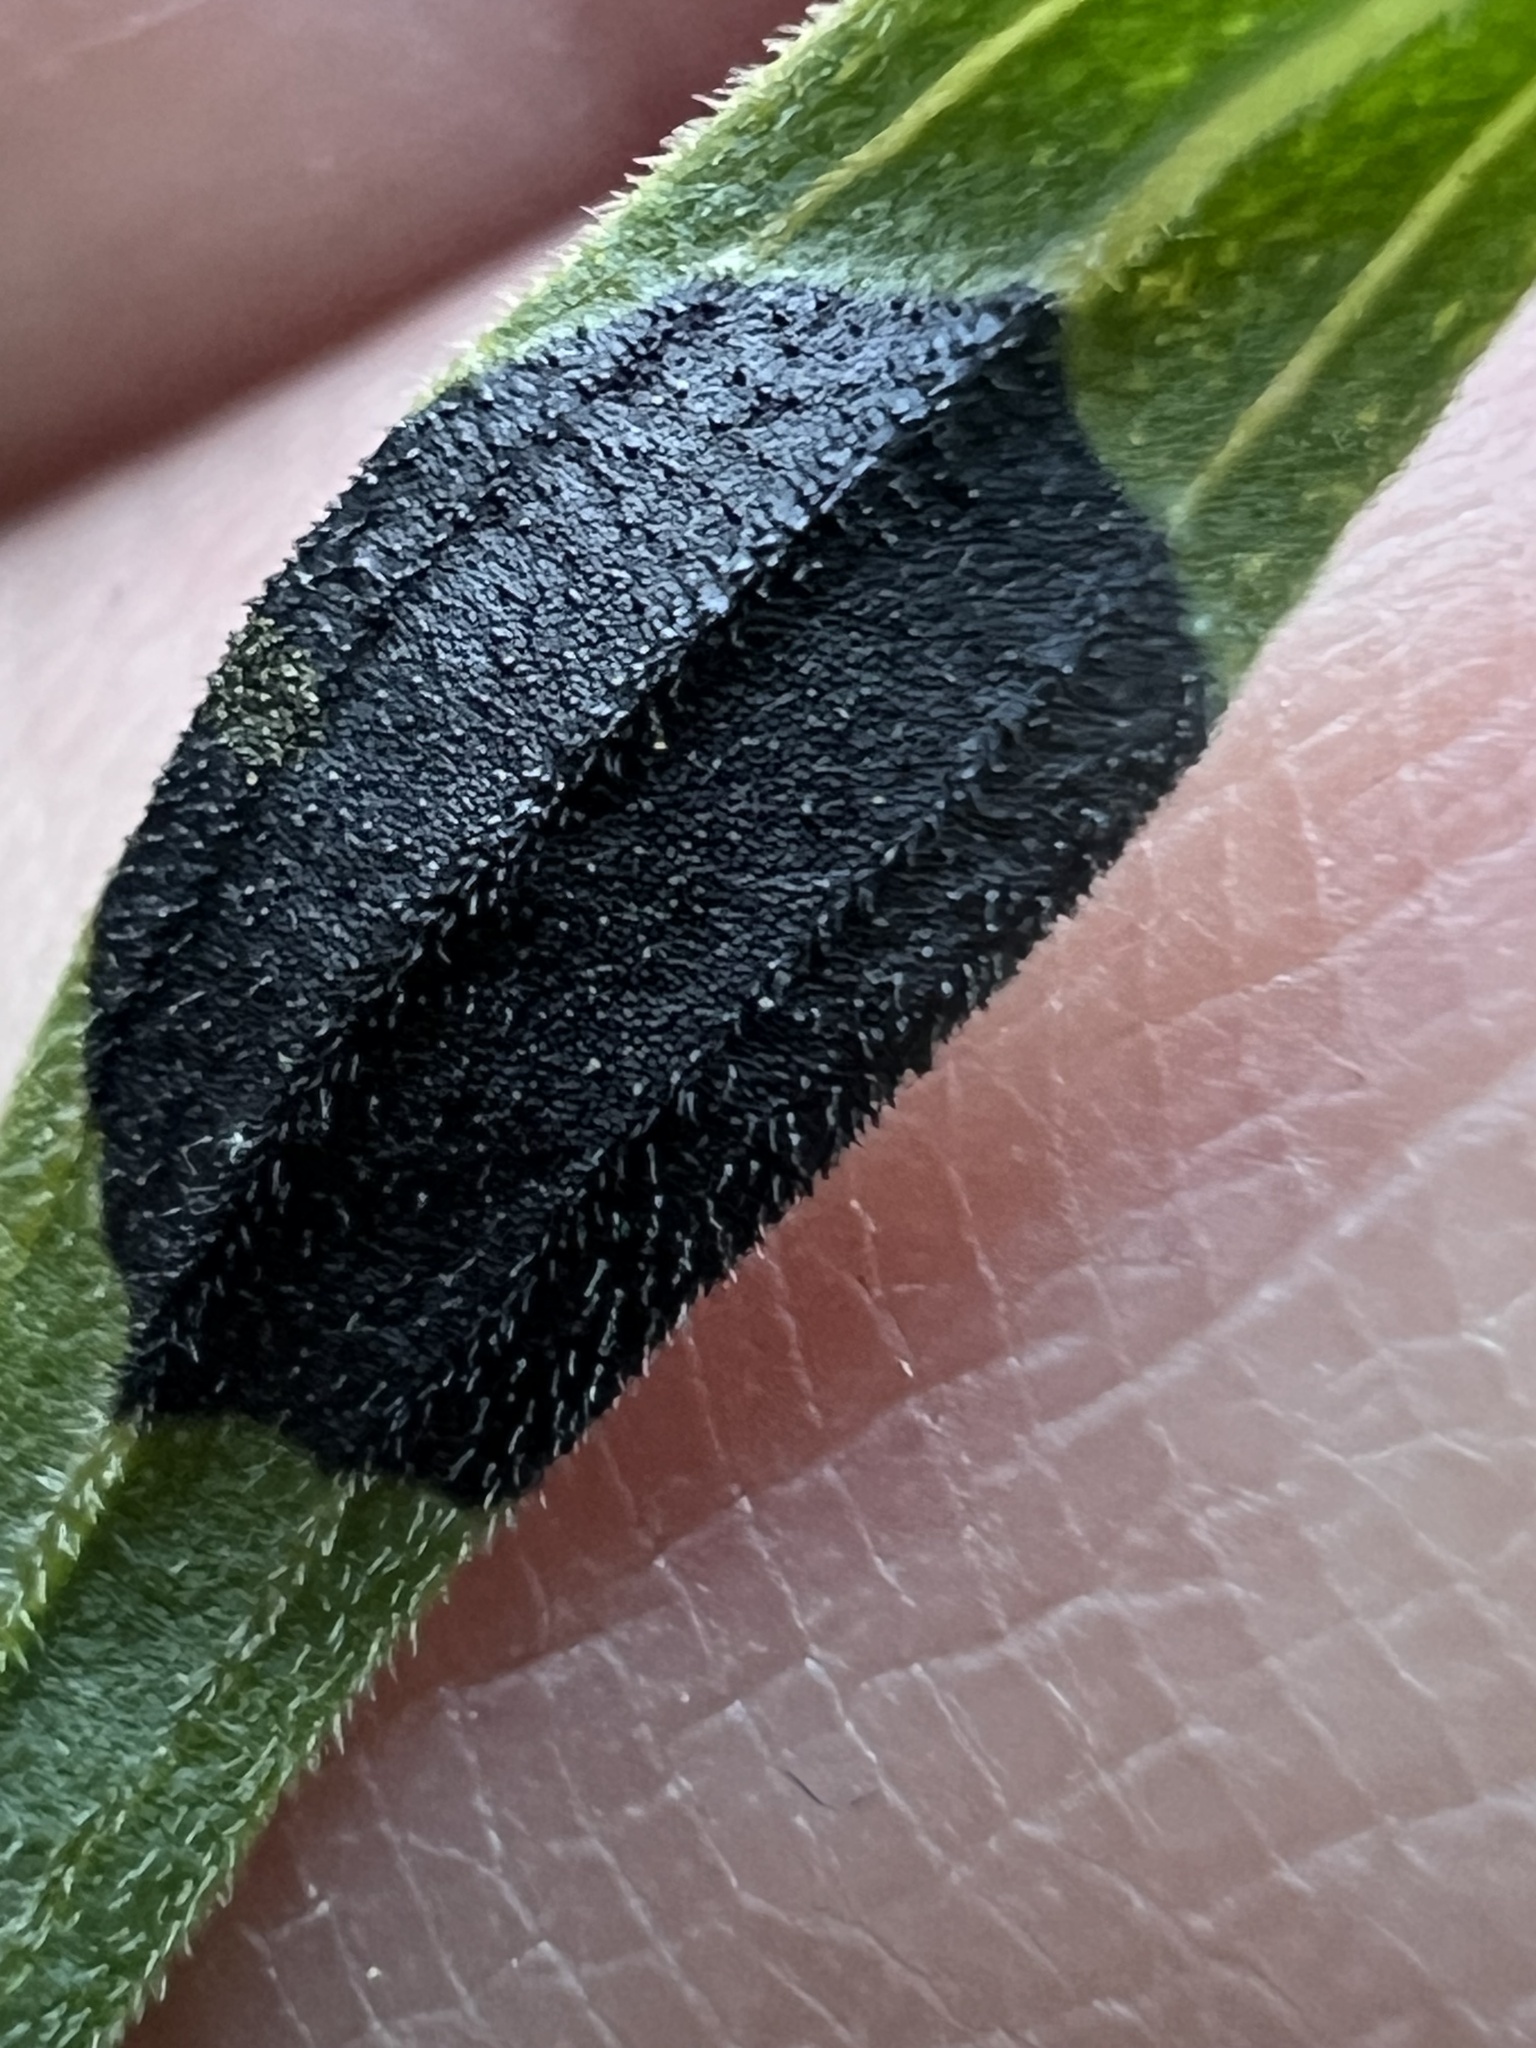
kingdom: Animalia
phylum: Arthropoda
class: Insecta
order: Diptera
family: Cecidomyiidae
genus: Asteromyia
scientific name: Asteromyia euthamiae
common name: Euthamia leaf gall midge
